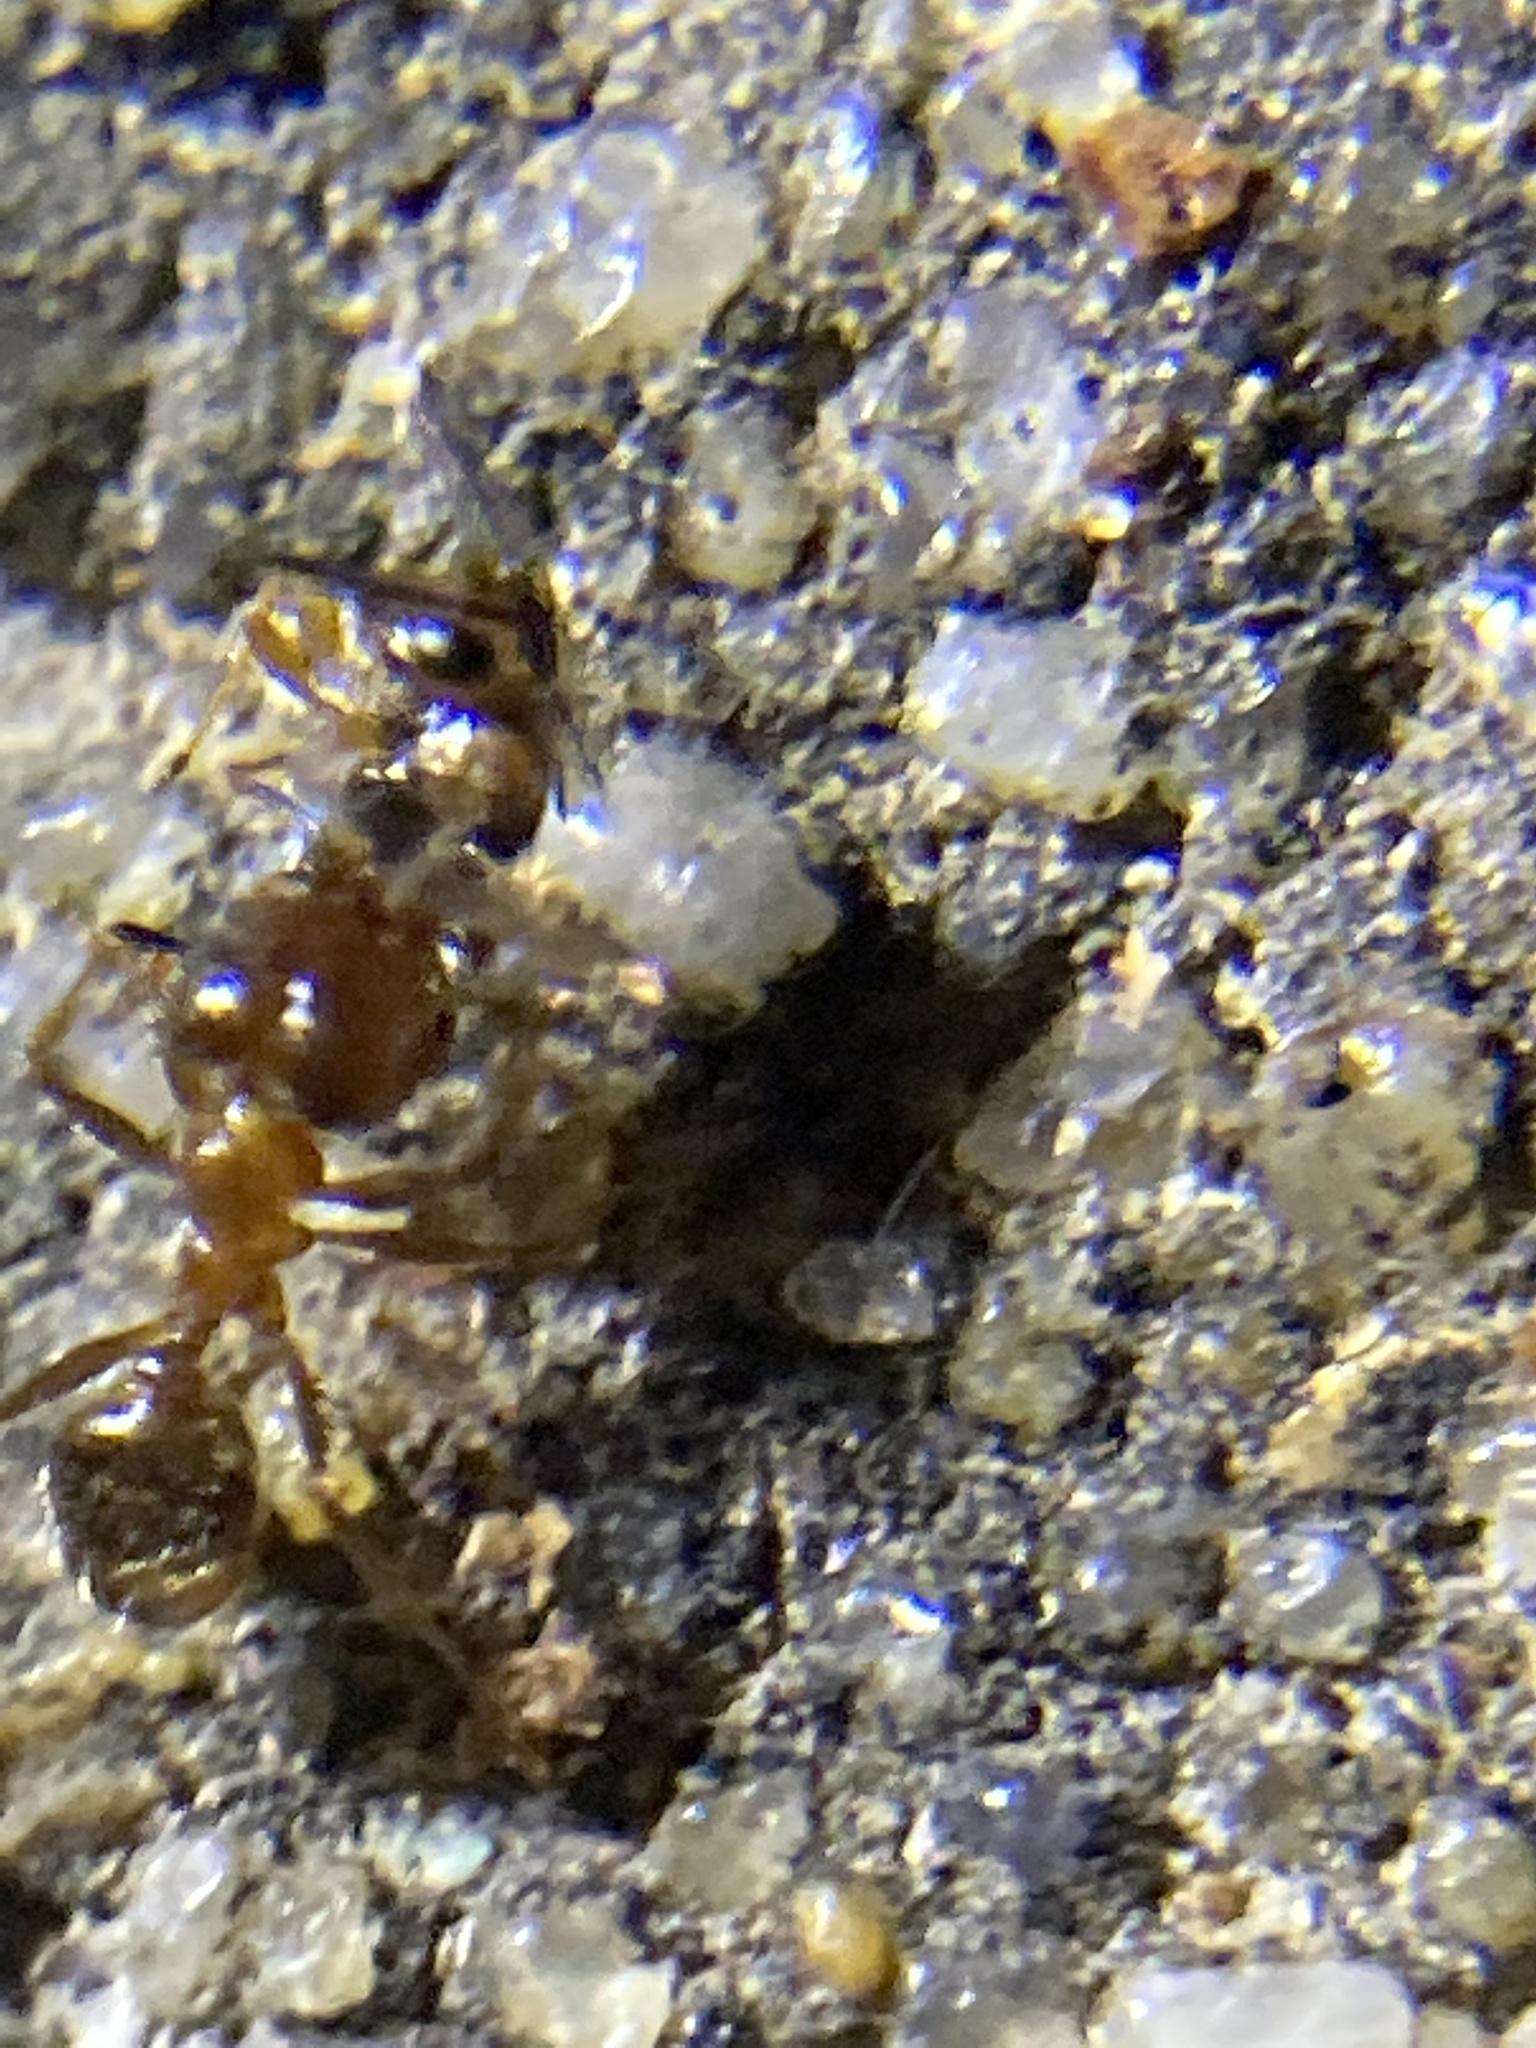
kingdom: Animalia
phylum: Arthropoda
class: Insecta
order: Hymenoptera
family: Formicidae
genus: Pheidole
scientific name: Pheidole dentata
